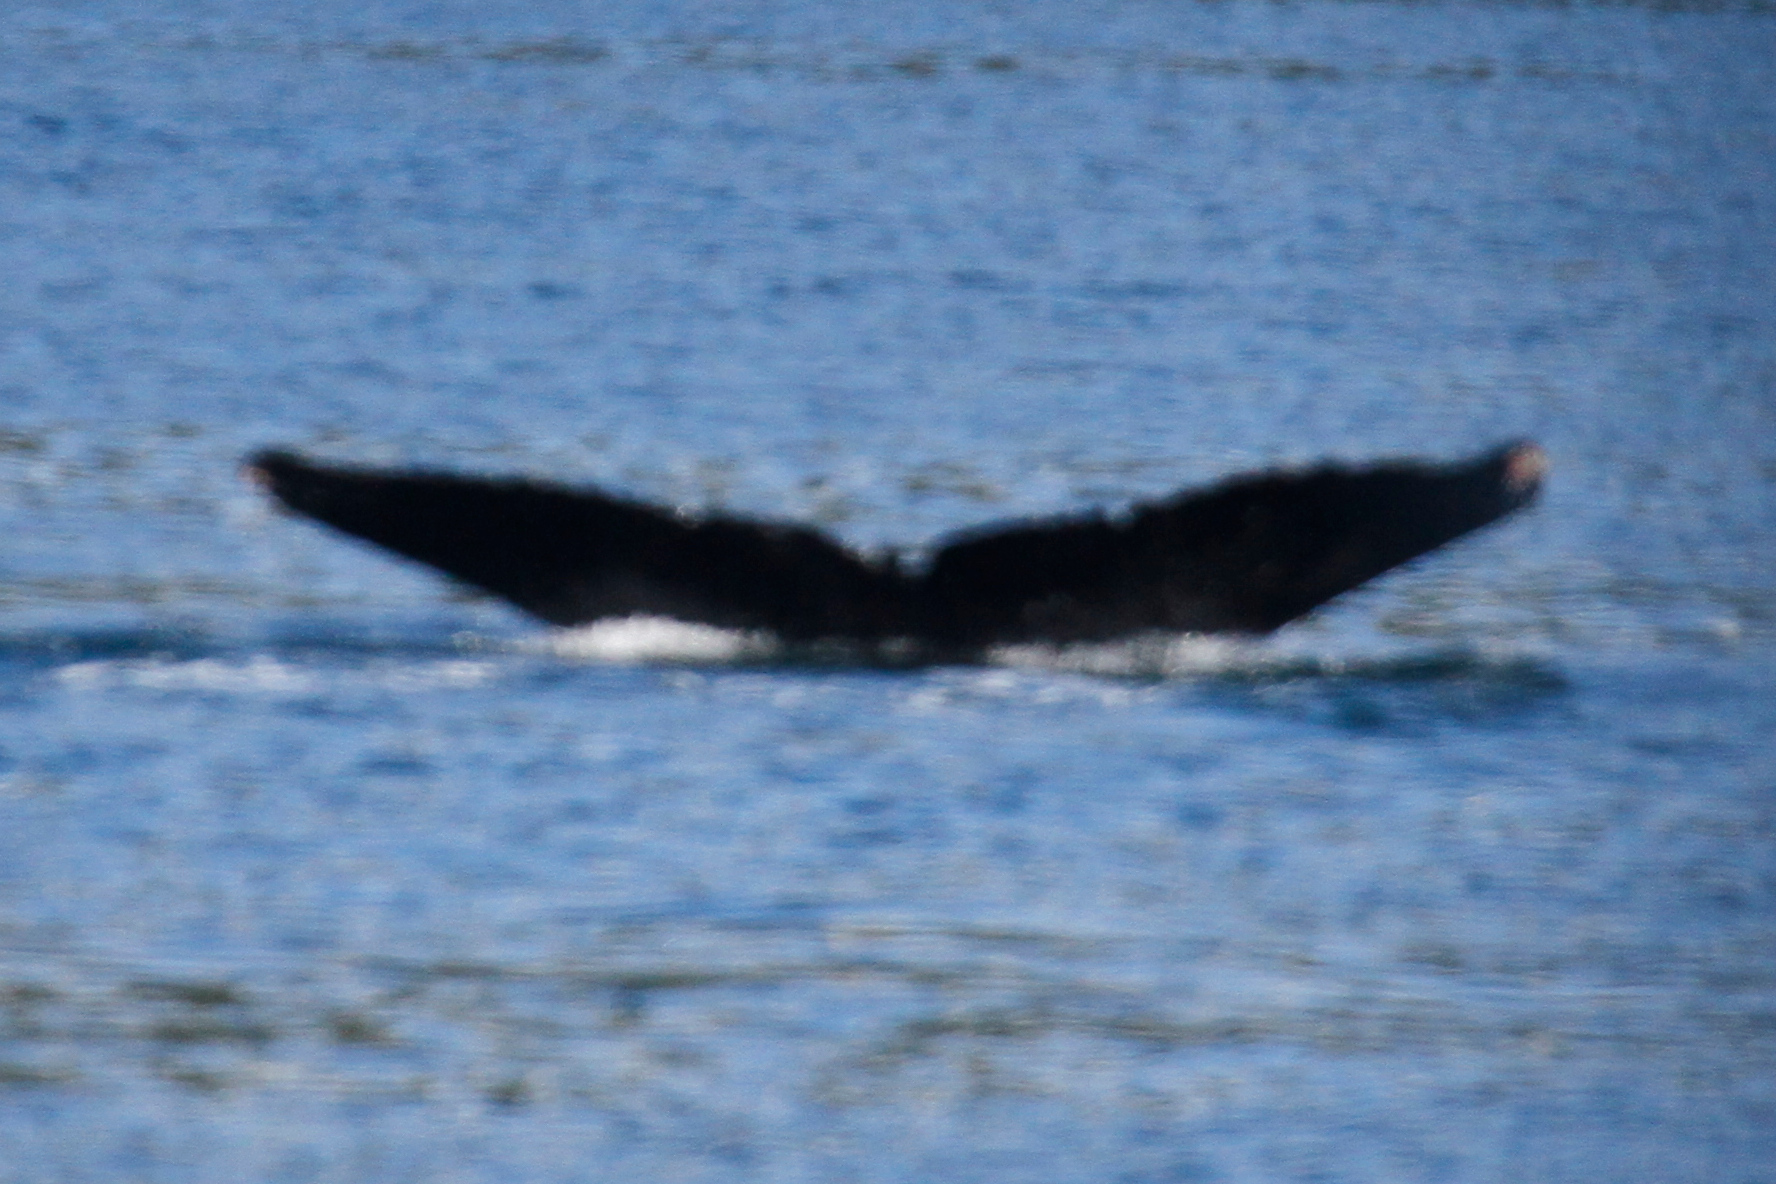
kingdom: Animalia
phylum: Chordata
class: Mammalia
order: Cetacea
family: Balaenopteridae
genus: Megaptera
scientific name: Megaptera novaeangliae
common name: Humpback whale
